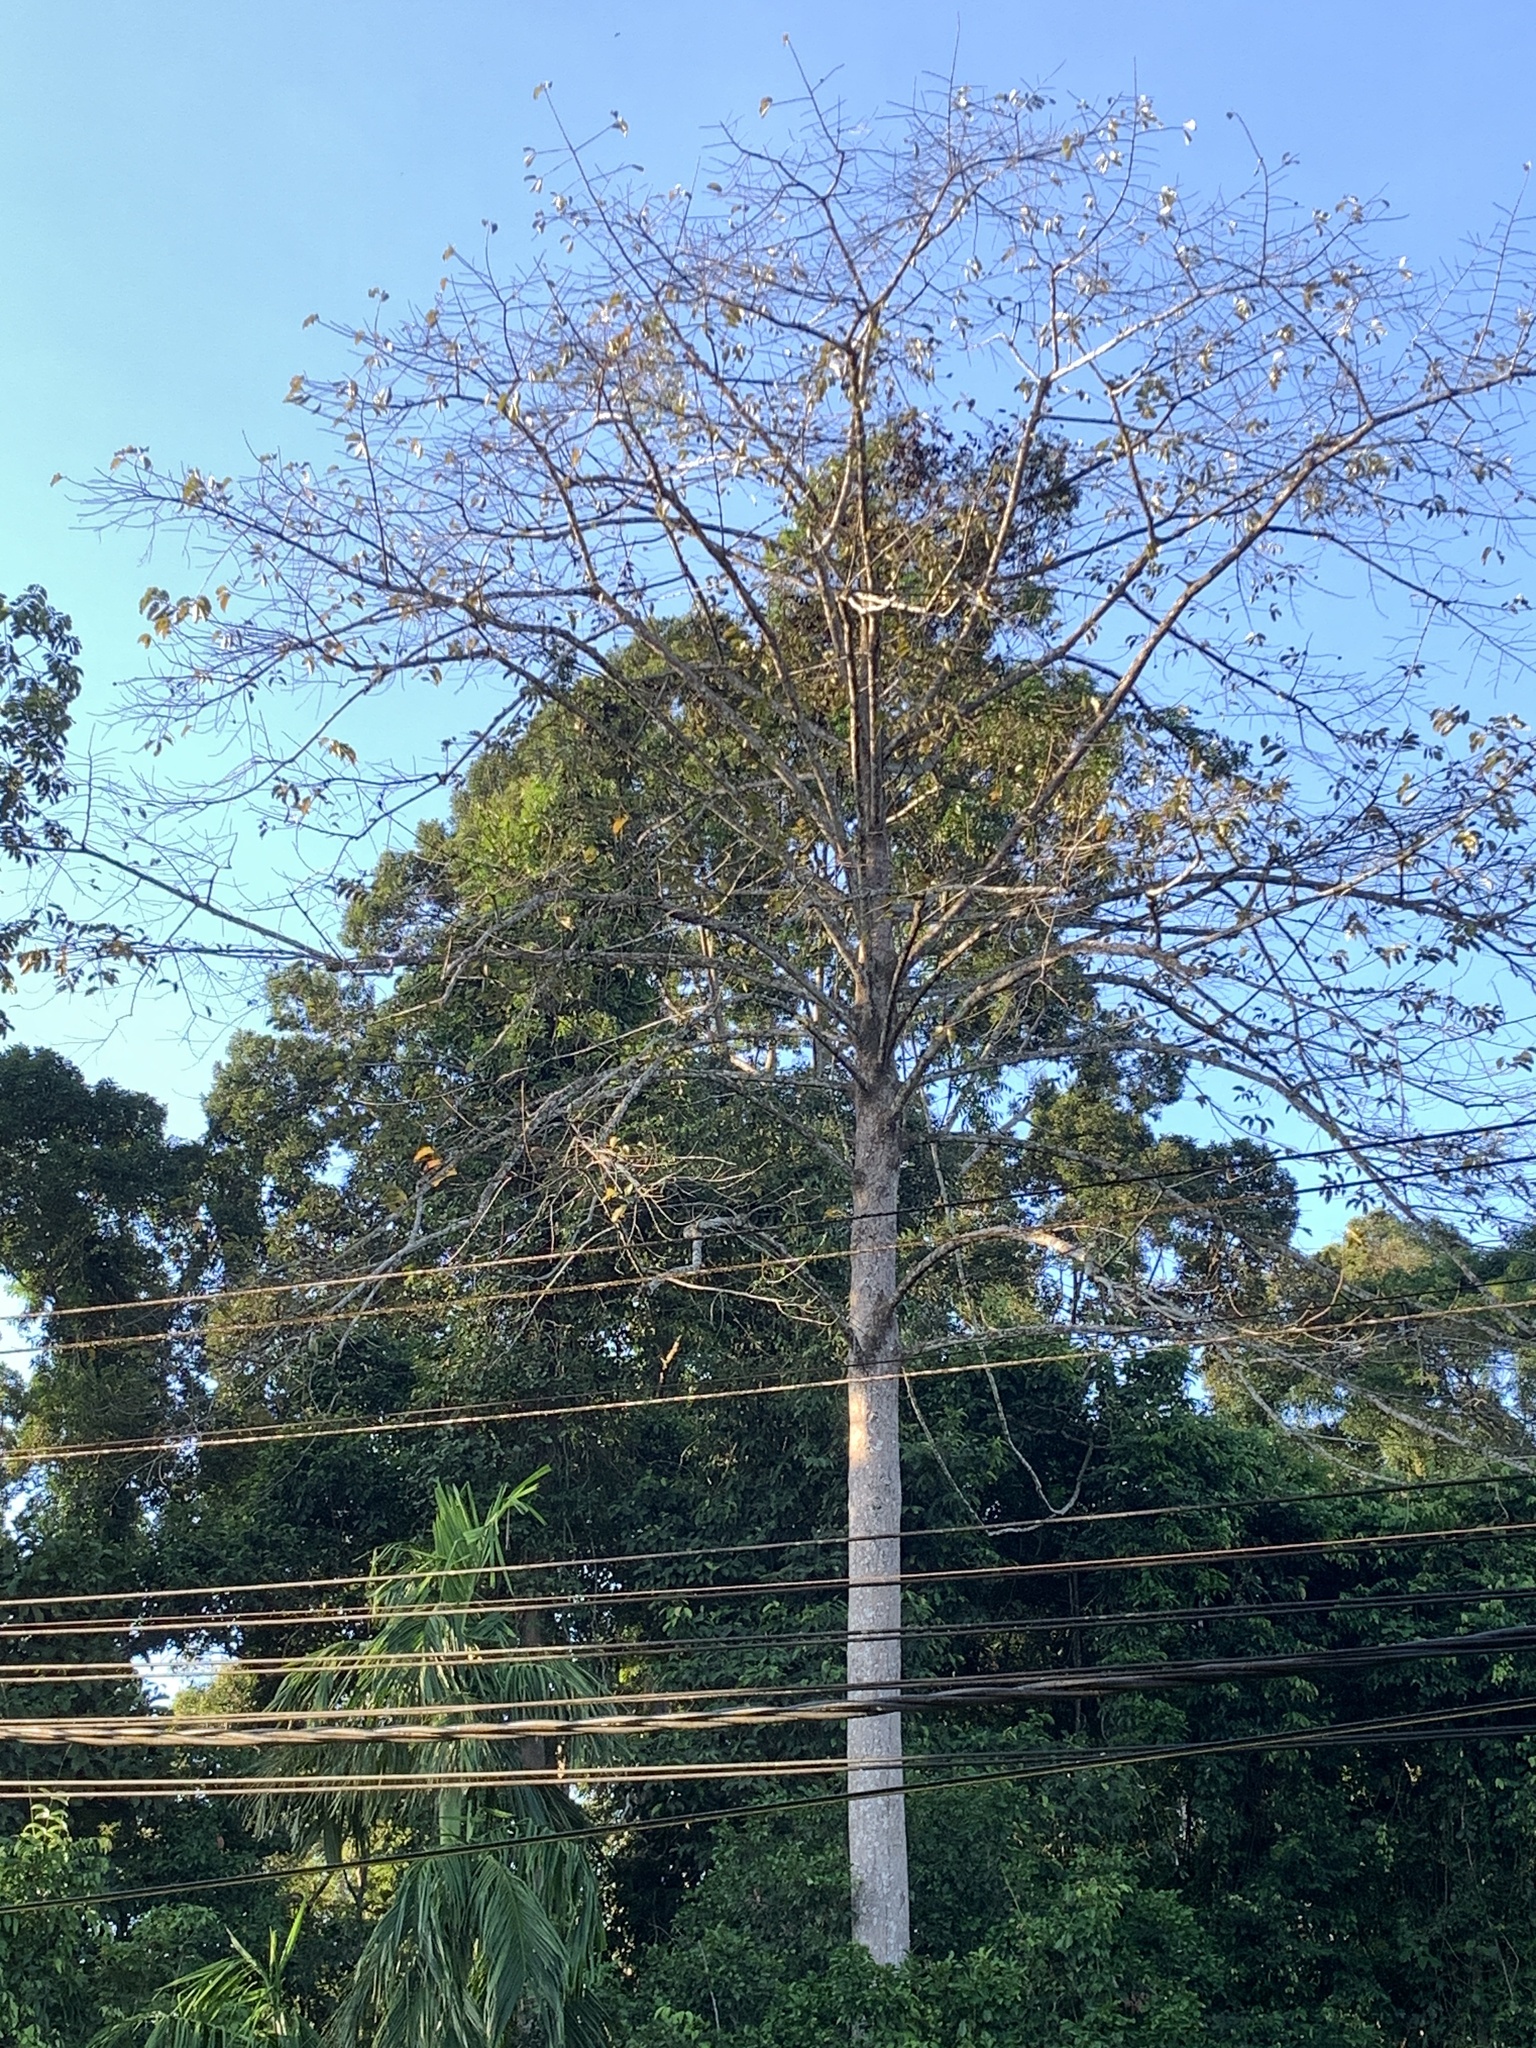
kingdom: Plantae
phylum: Tracheophyta
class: Magnoliopsida
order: Gentianales
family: Rubiaceae
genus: Neolamarckia
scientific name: Neolamarckia cadamba
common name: Leichhardt-pine
